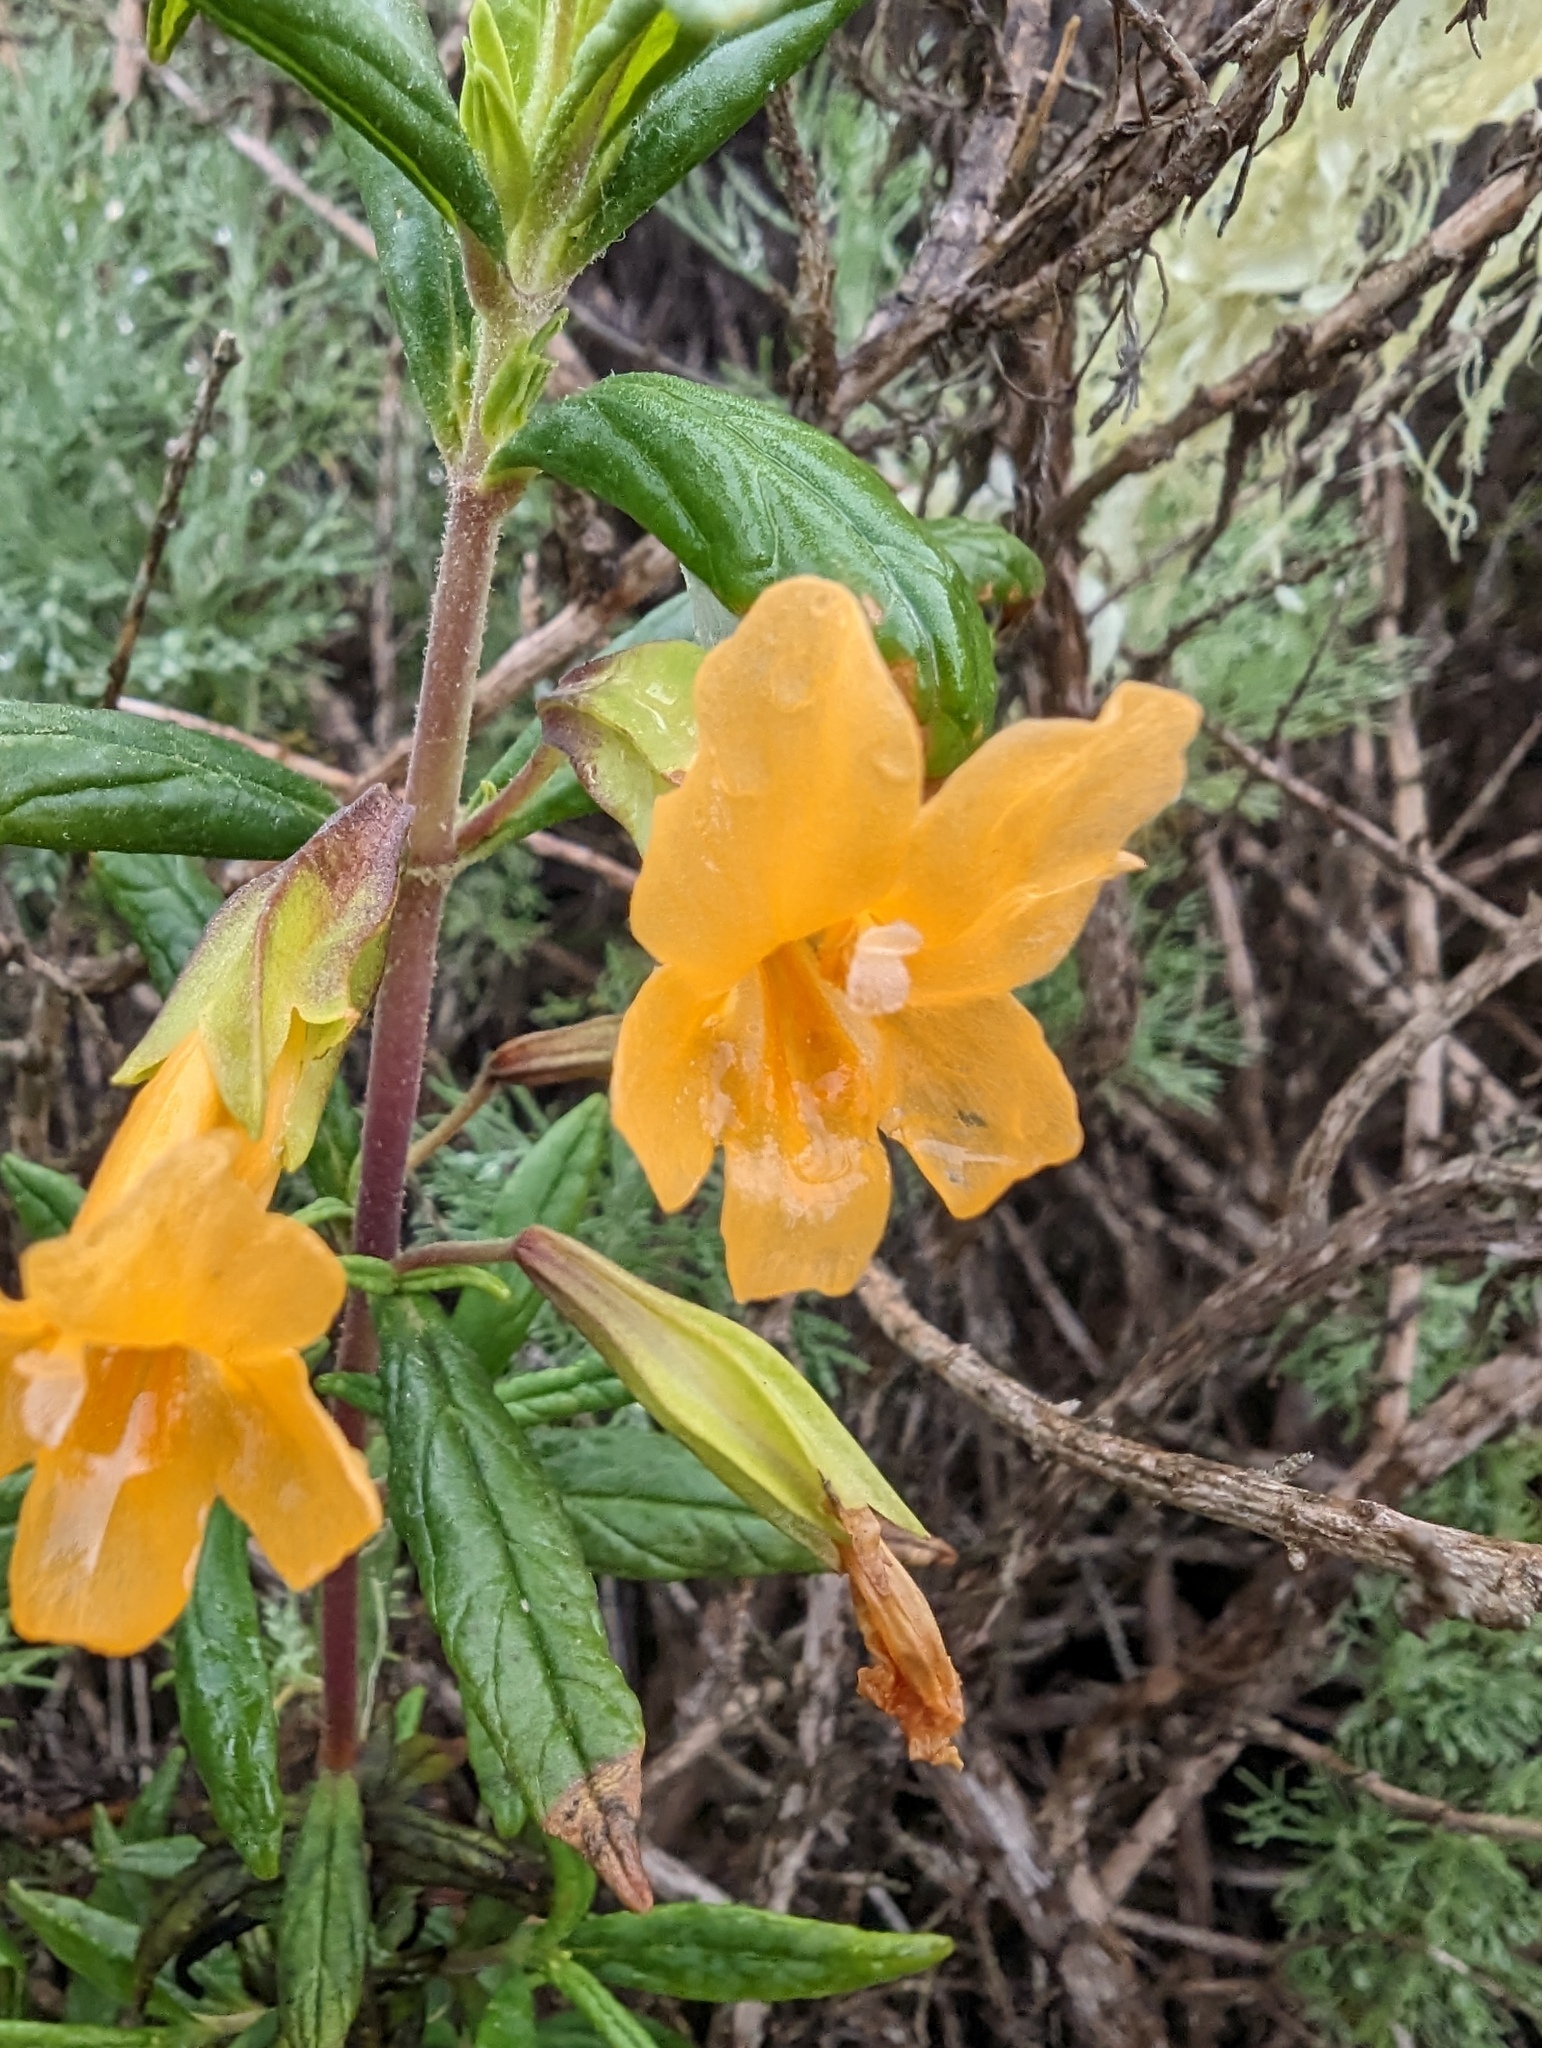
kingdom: Plantae
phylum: Tracheophyta
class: Magnoliopsida
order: Lamiales
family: Phrymaceae
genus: Diplacus
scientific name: Diplacus aurantiacus
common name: Bush monkey-flower
